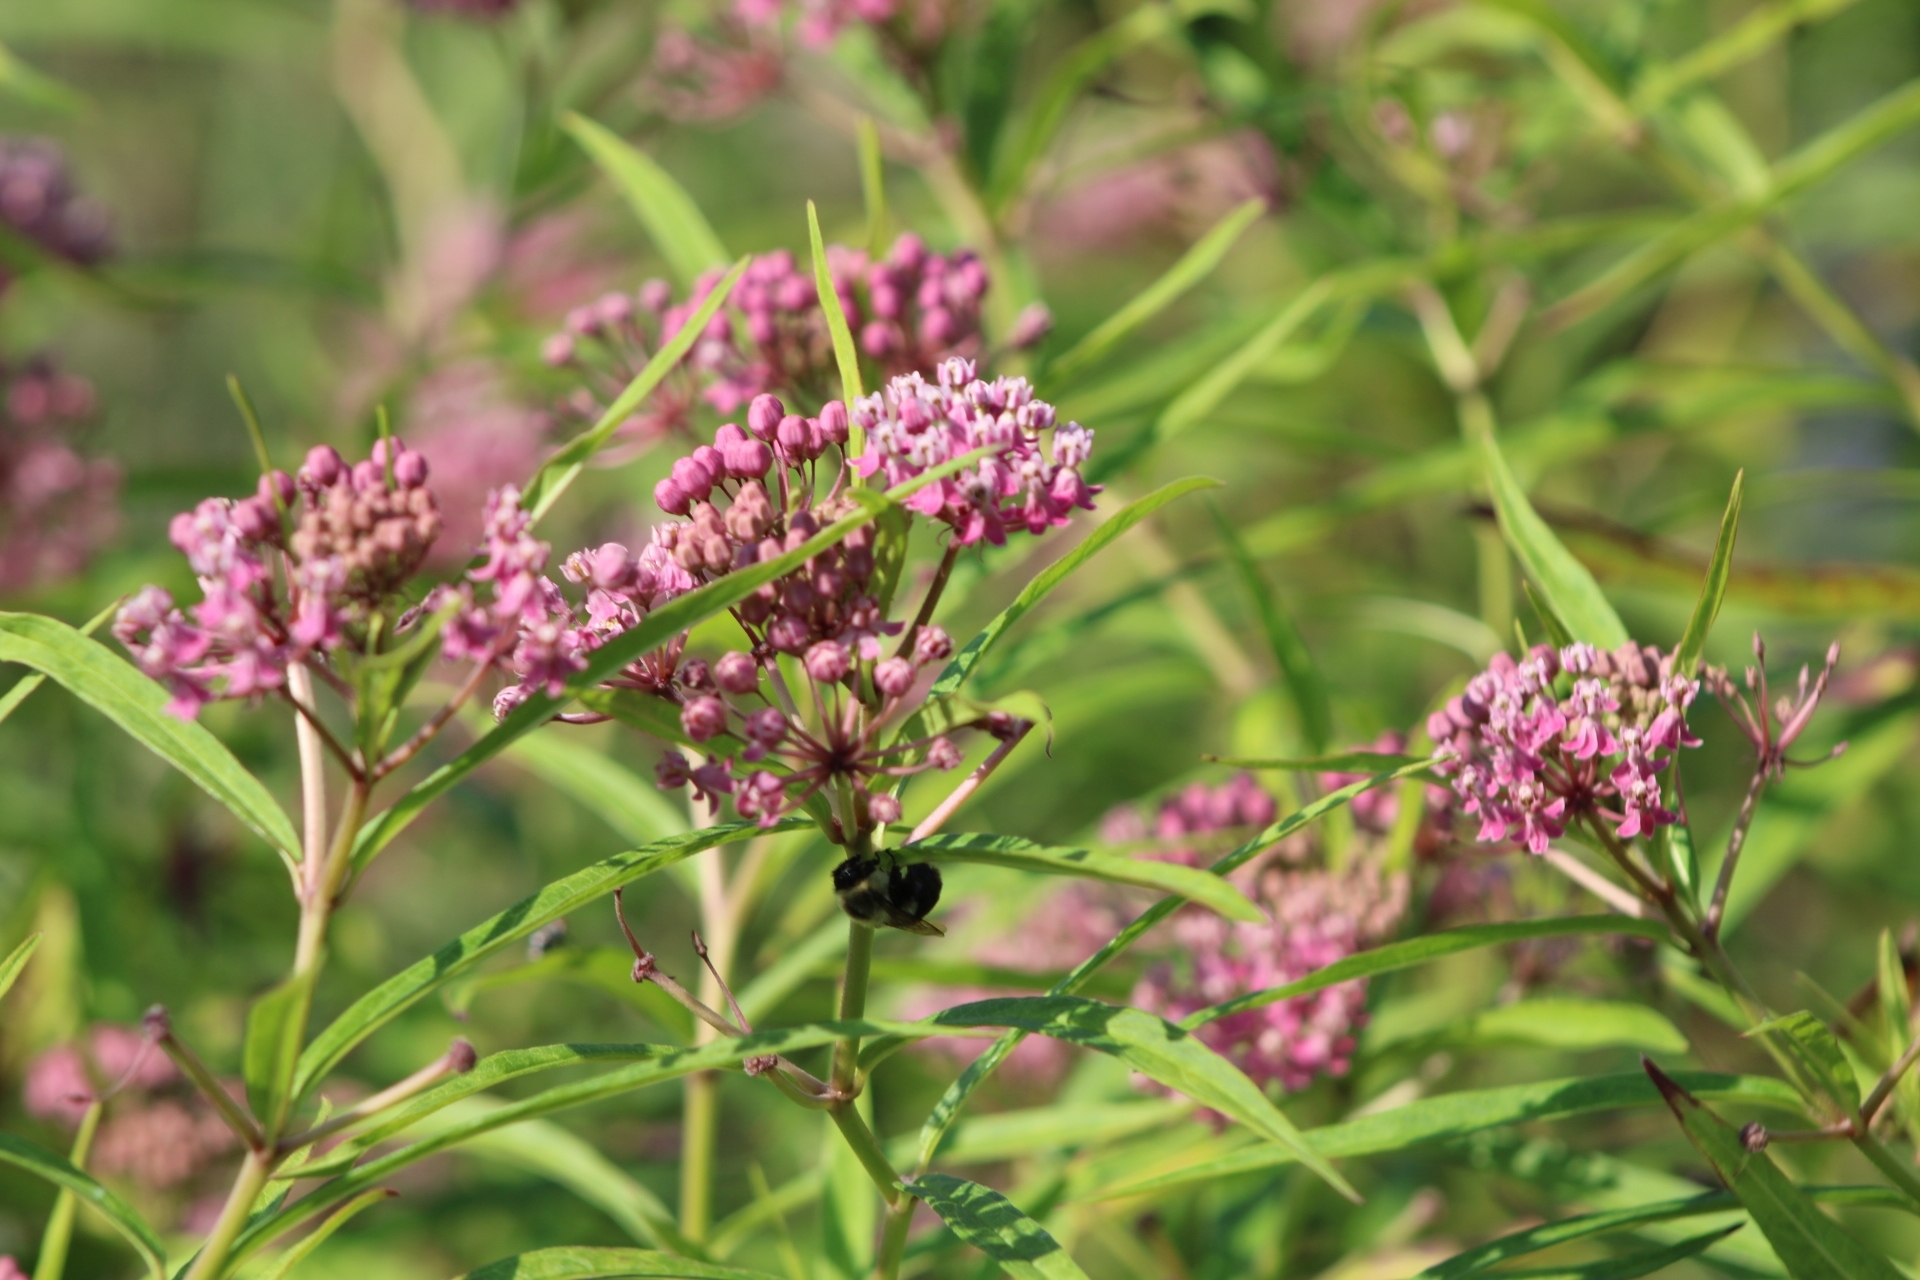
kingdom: Animalia
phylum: Arthropoda
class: Insecta
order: Hymenoptera
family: Apidae
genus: Bombus
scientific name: Bombus impatiens
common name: Common eastern bumble bee
